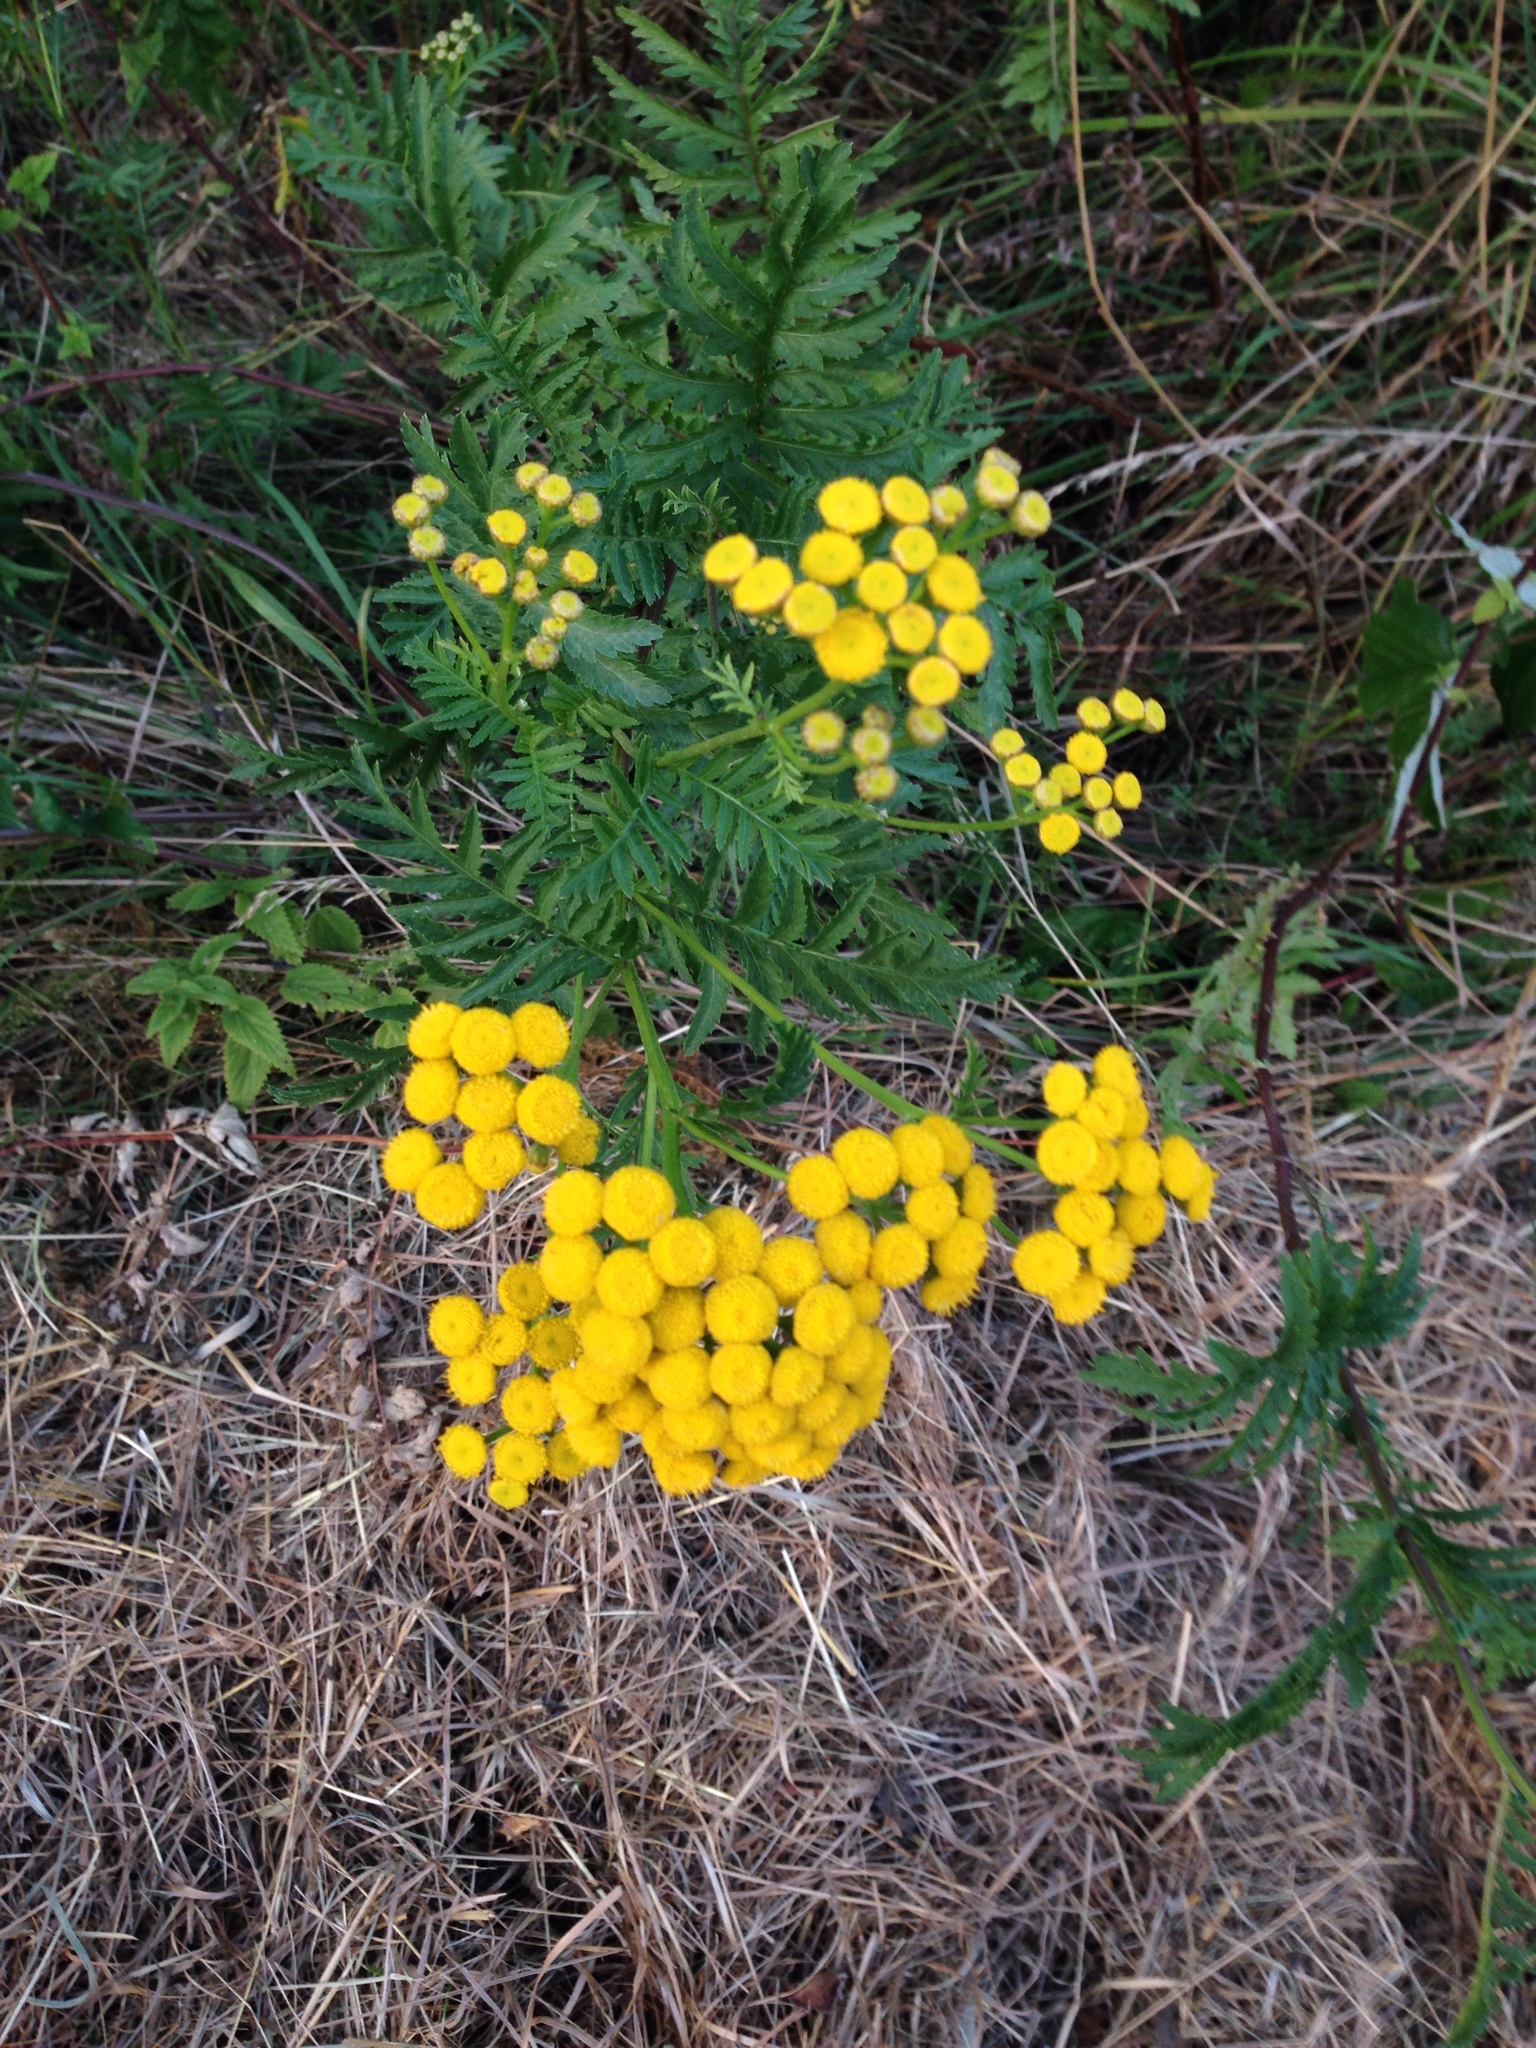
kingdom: Plantae
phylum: Tracheophyta
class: Magnoliopsida
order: Asterales
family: Asteraceae
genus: Tanacetum
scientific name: Tanacetum vulgare
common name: Common tansy
